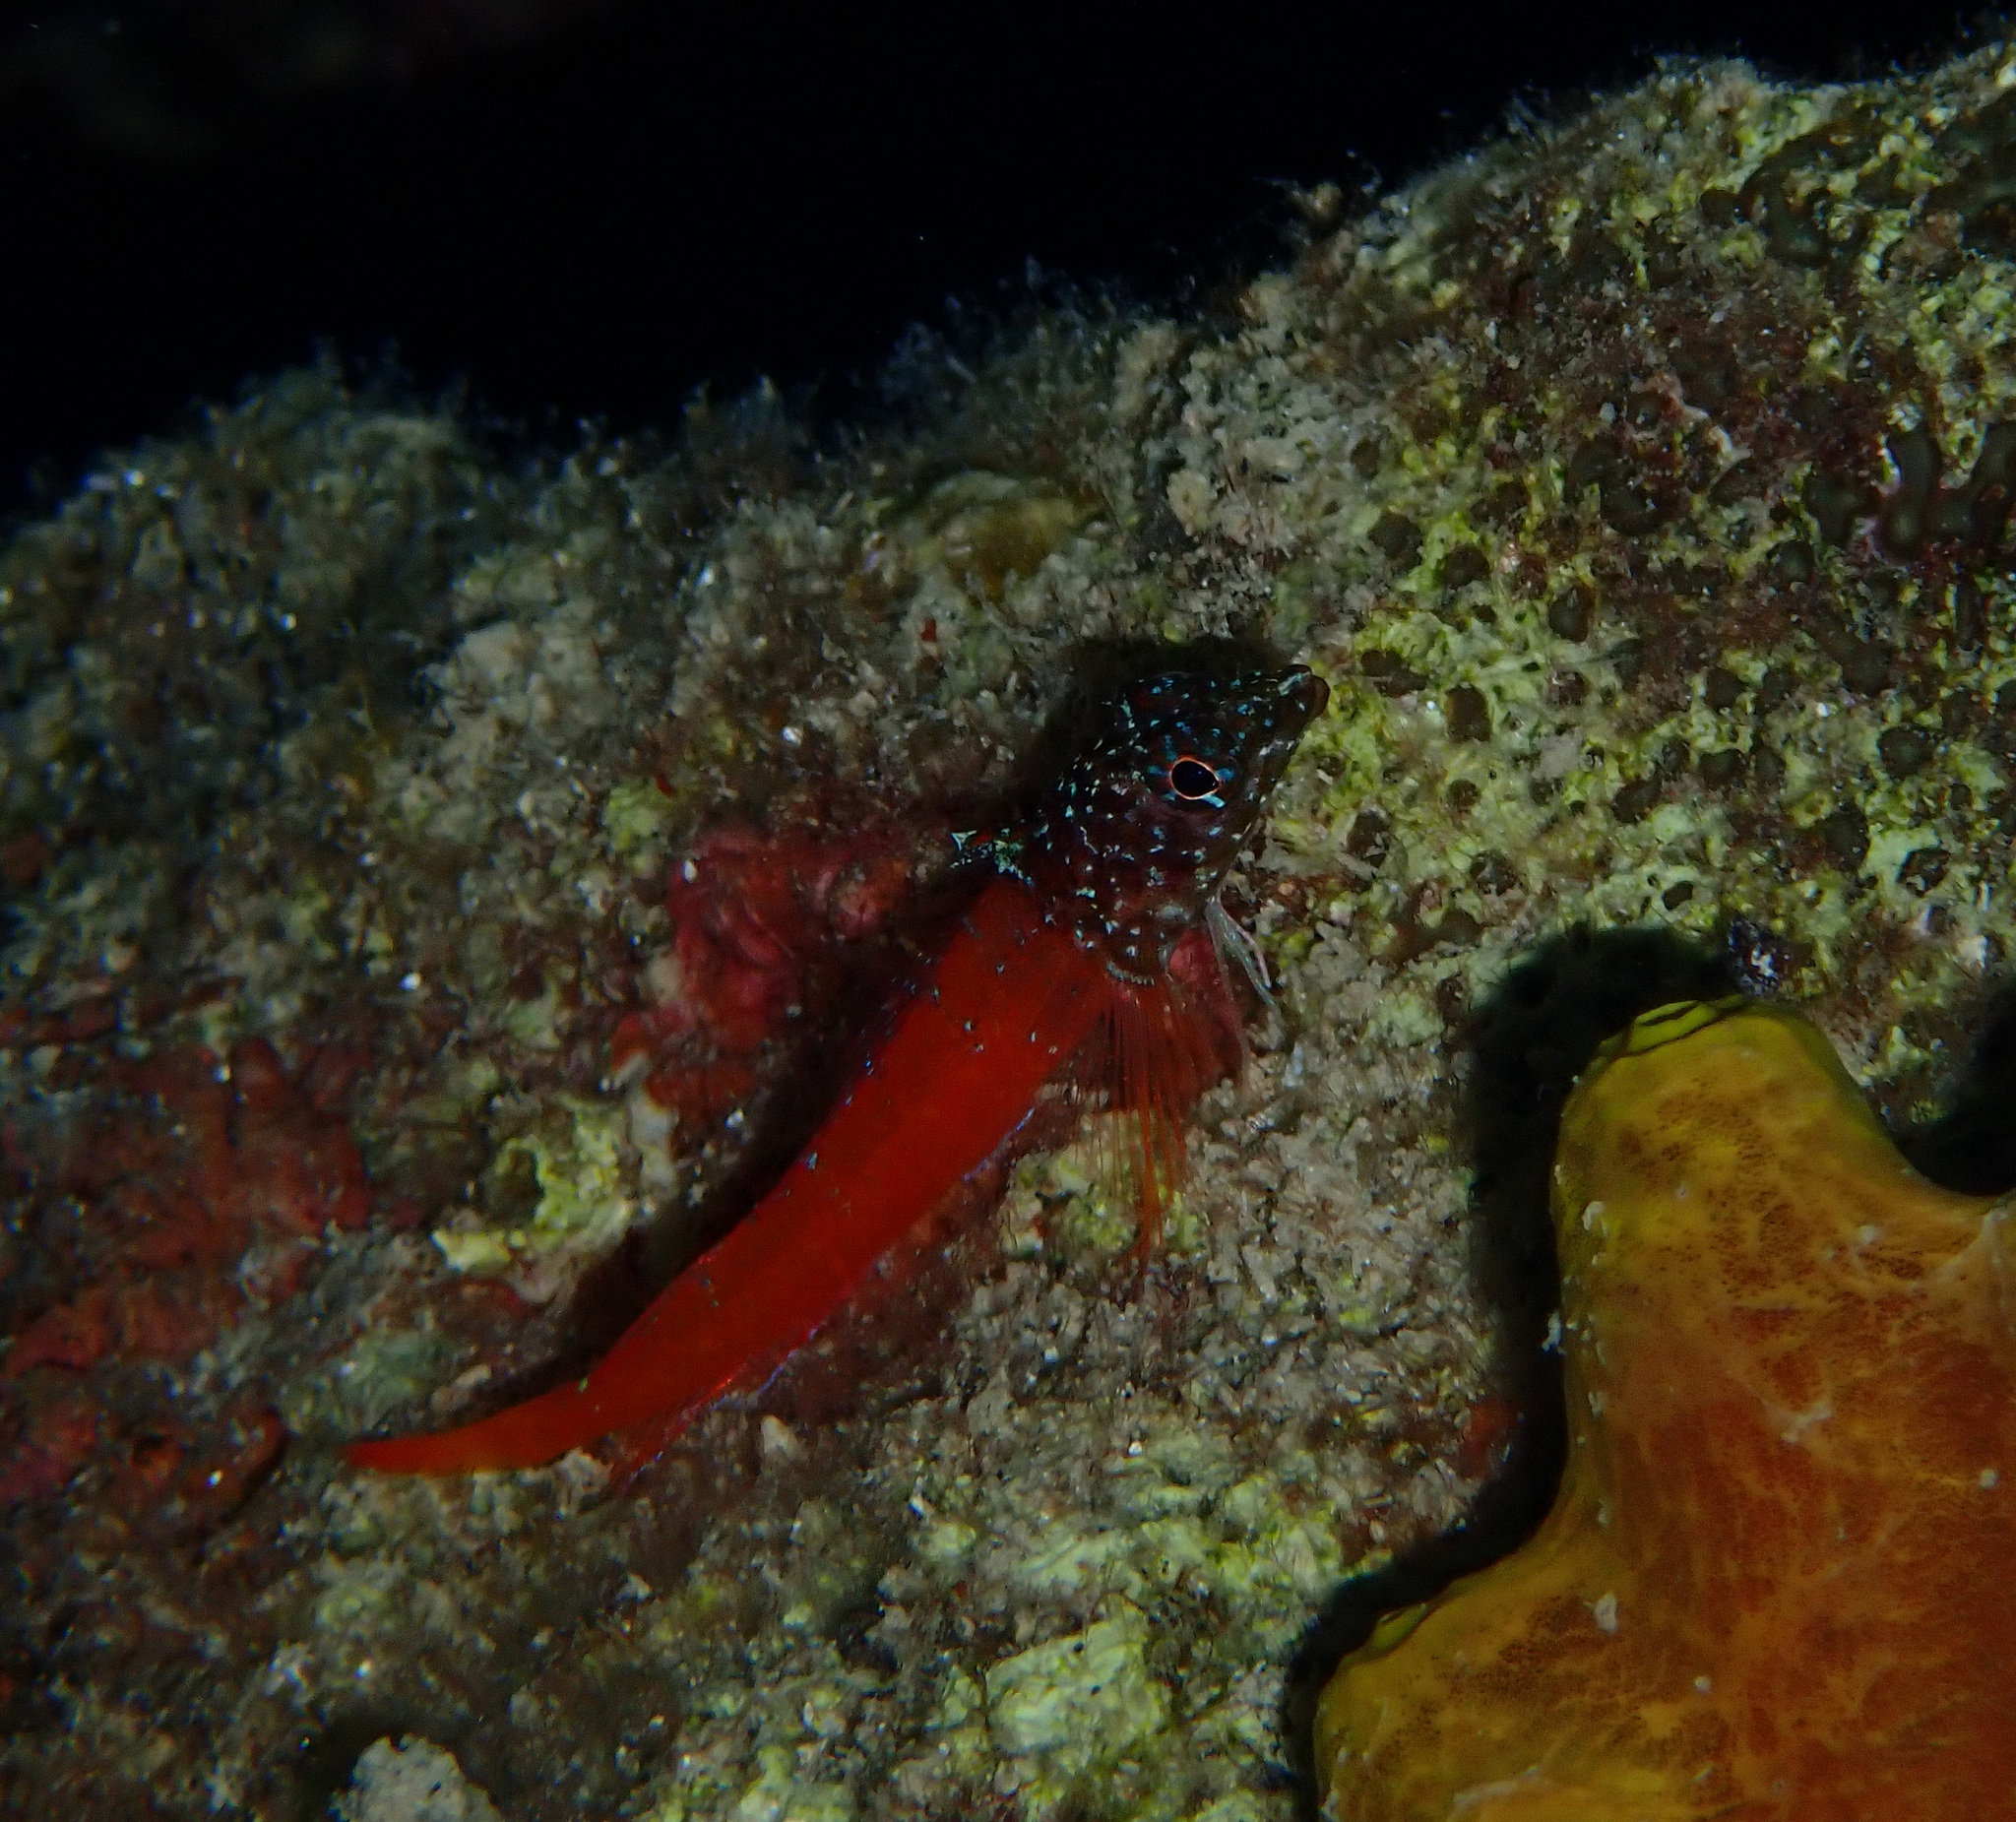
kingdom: Animalia
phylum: Chordata
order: Perciformes
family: Tripterygiidae
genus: Tripterygion
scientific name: Tripterygion melanurum
